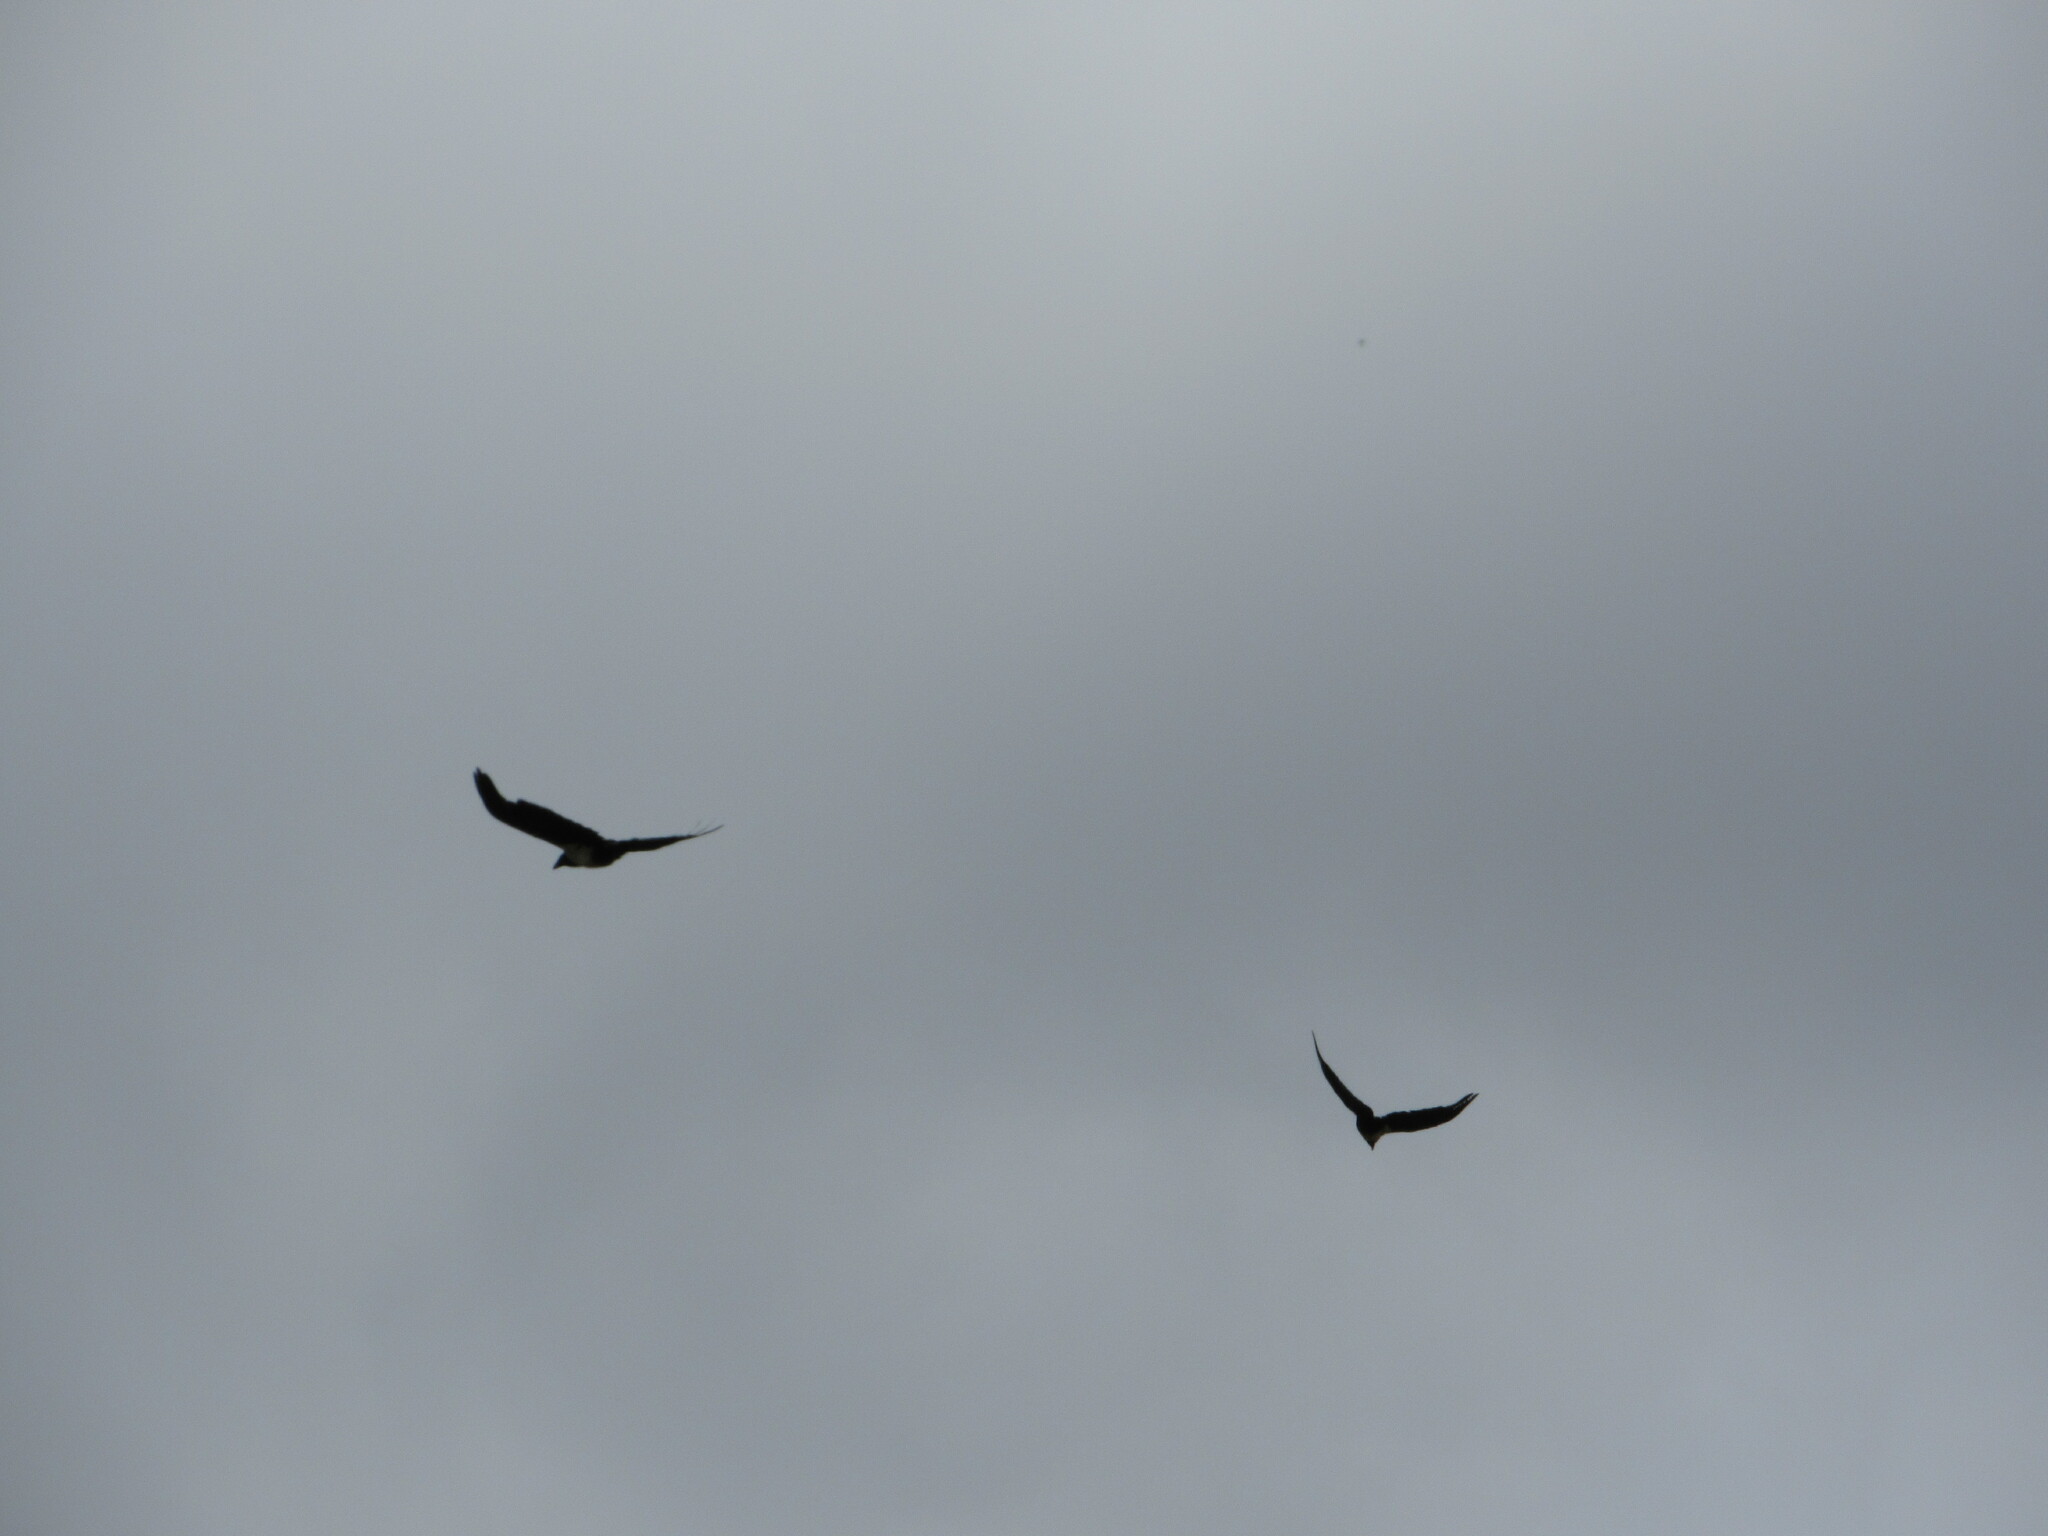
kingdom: Animalia
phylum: Chordata
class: Aves
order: Passeriformes
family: Corvidae
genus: Corvus
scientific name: Corvus albus
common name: Pied crow
